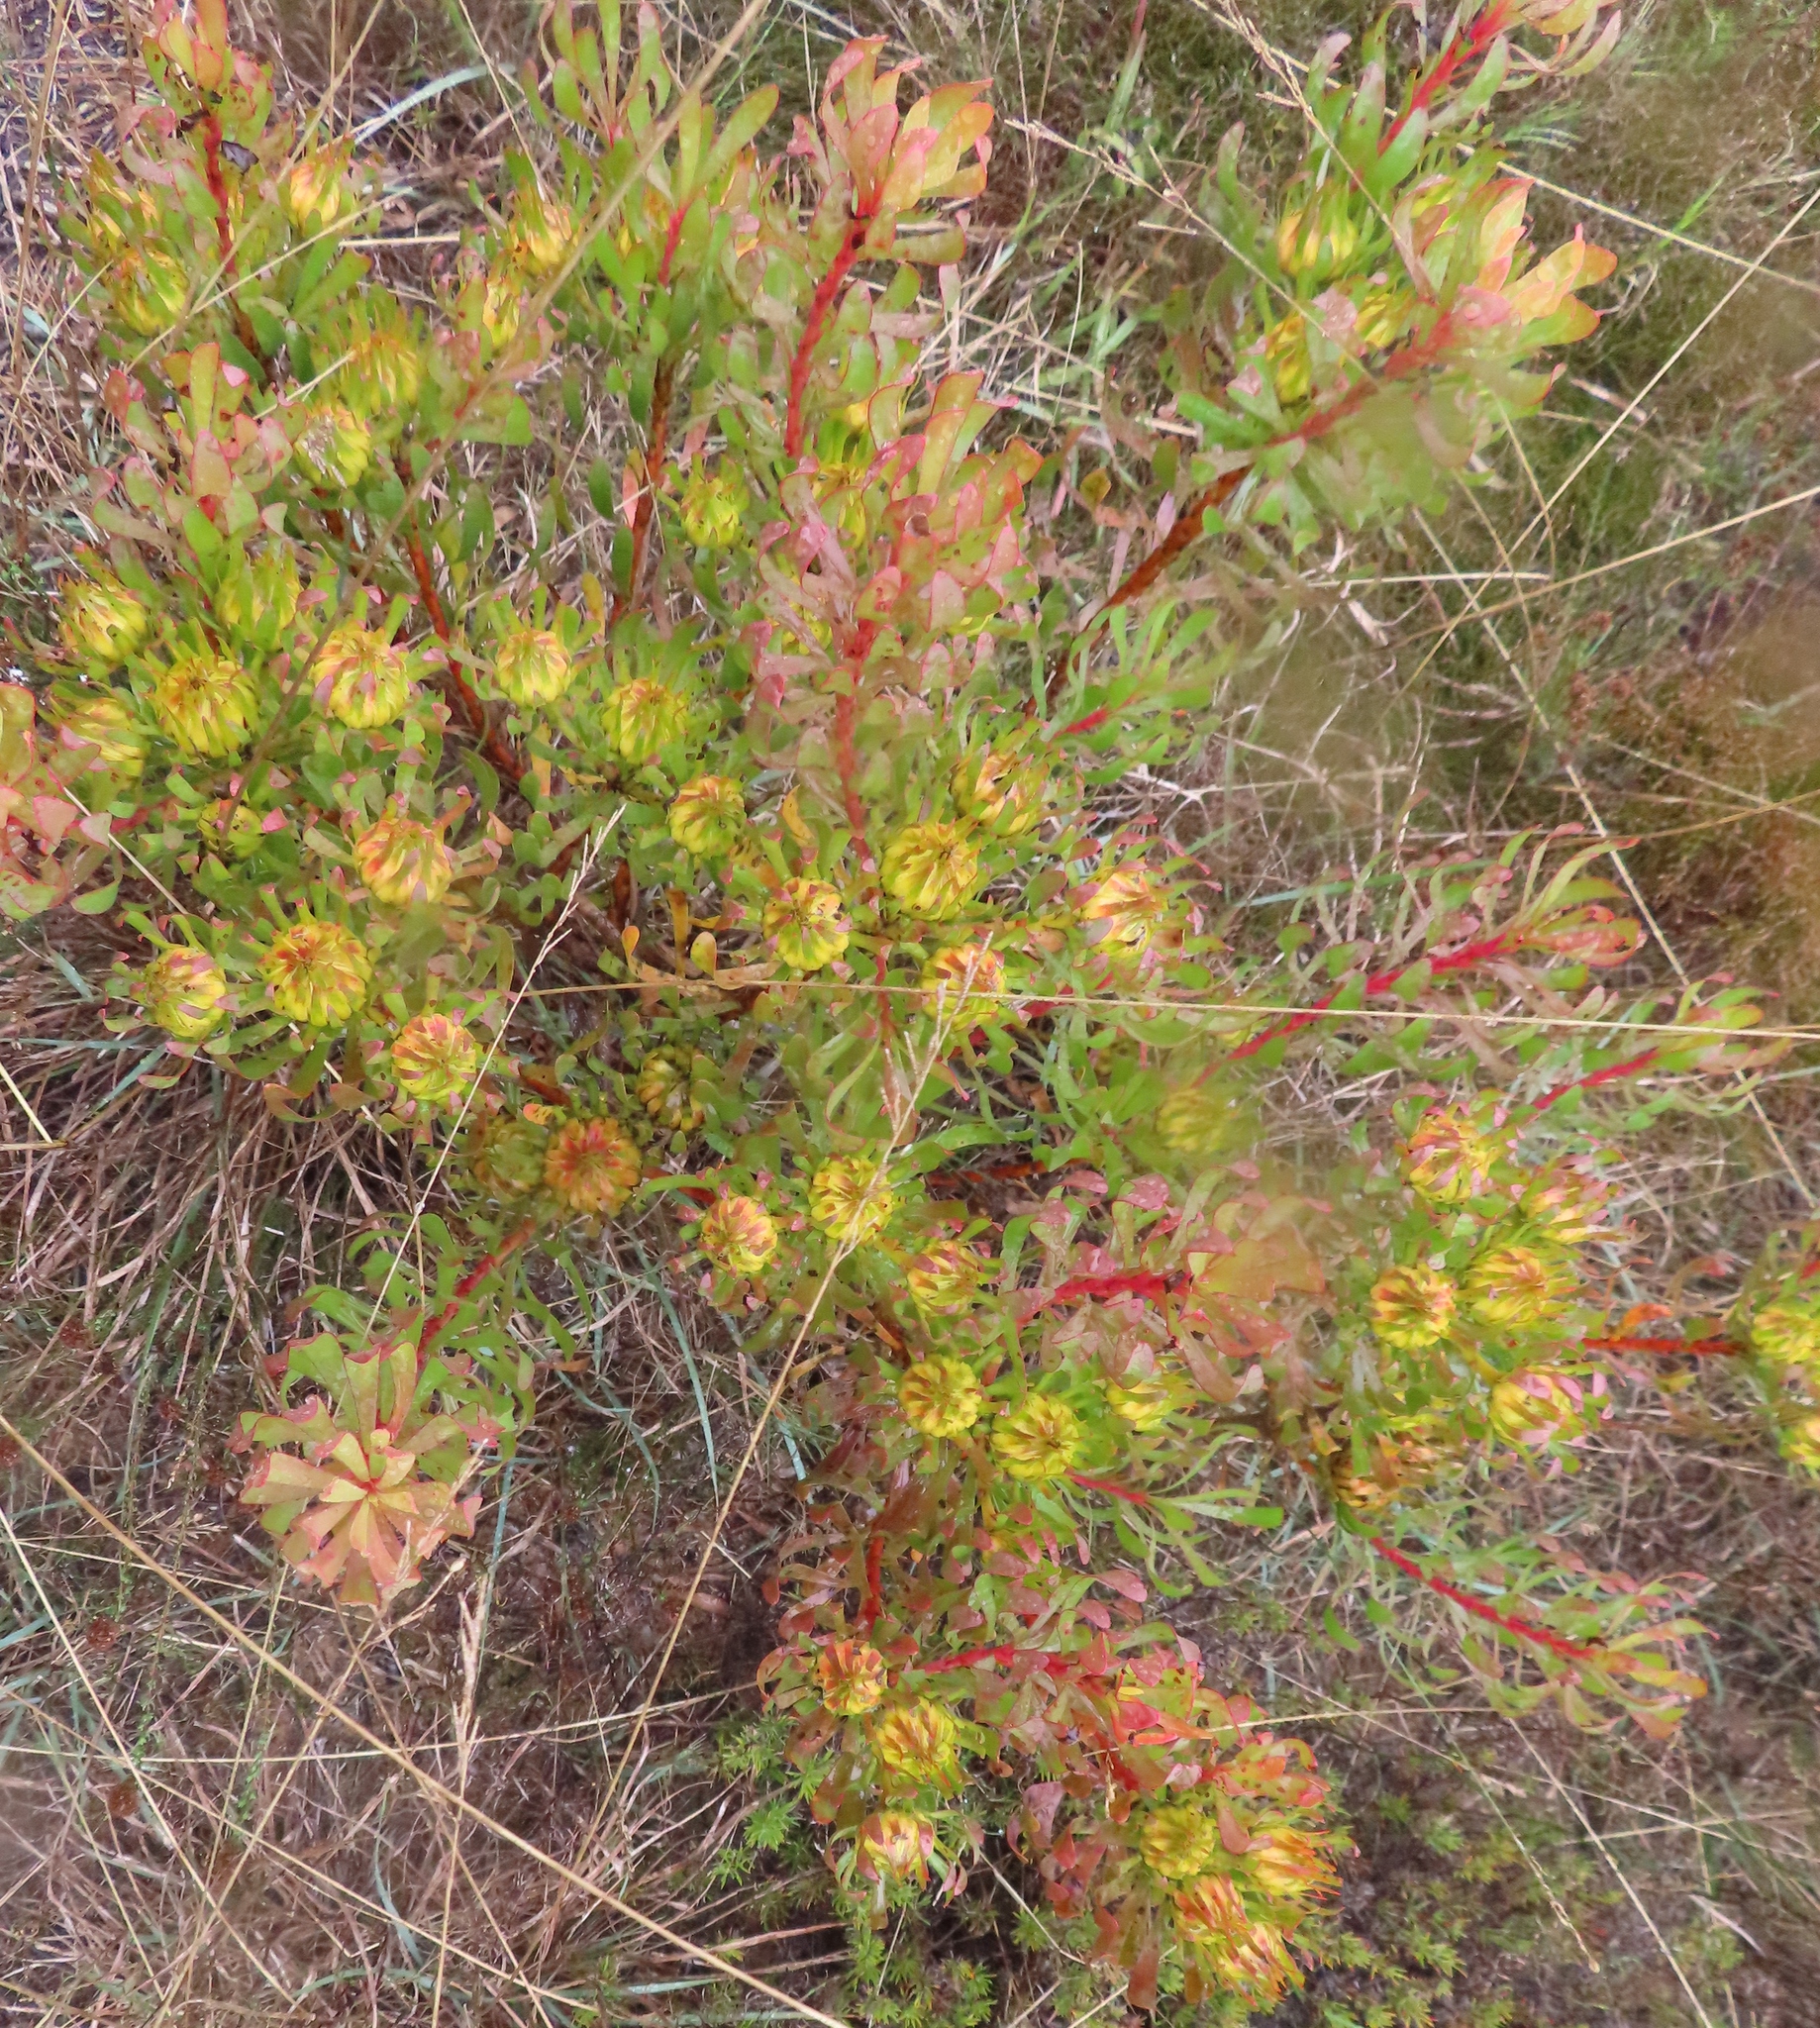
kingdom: Plantae
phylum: Tracheophyta
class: Magnoliopsida
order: Proteales
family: Proteaceae
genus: Aulax
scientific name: Aulax umbellata
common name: Broad-leaf featherbush
